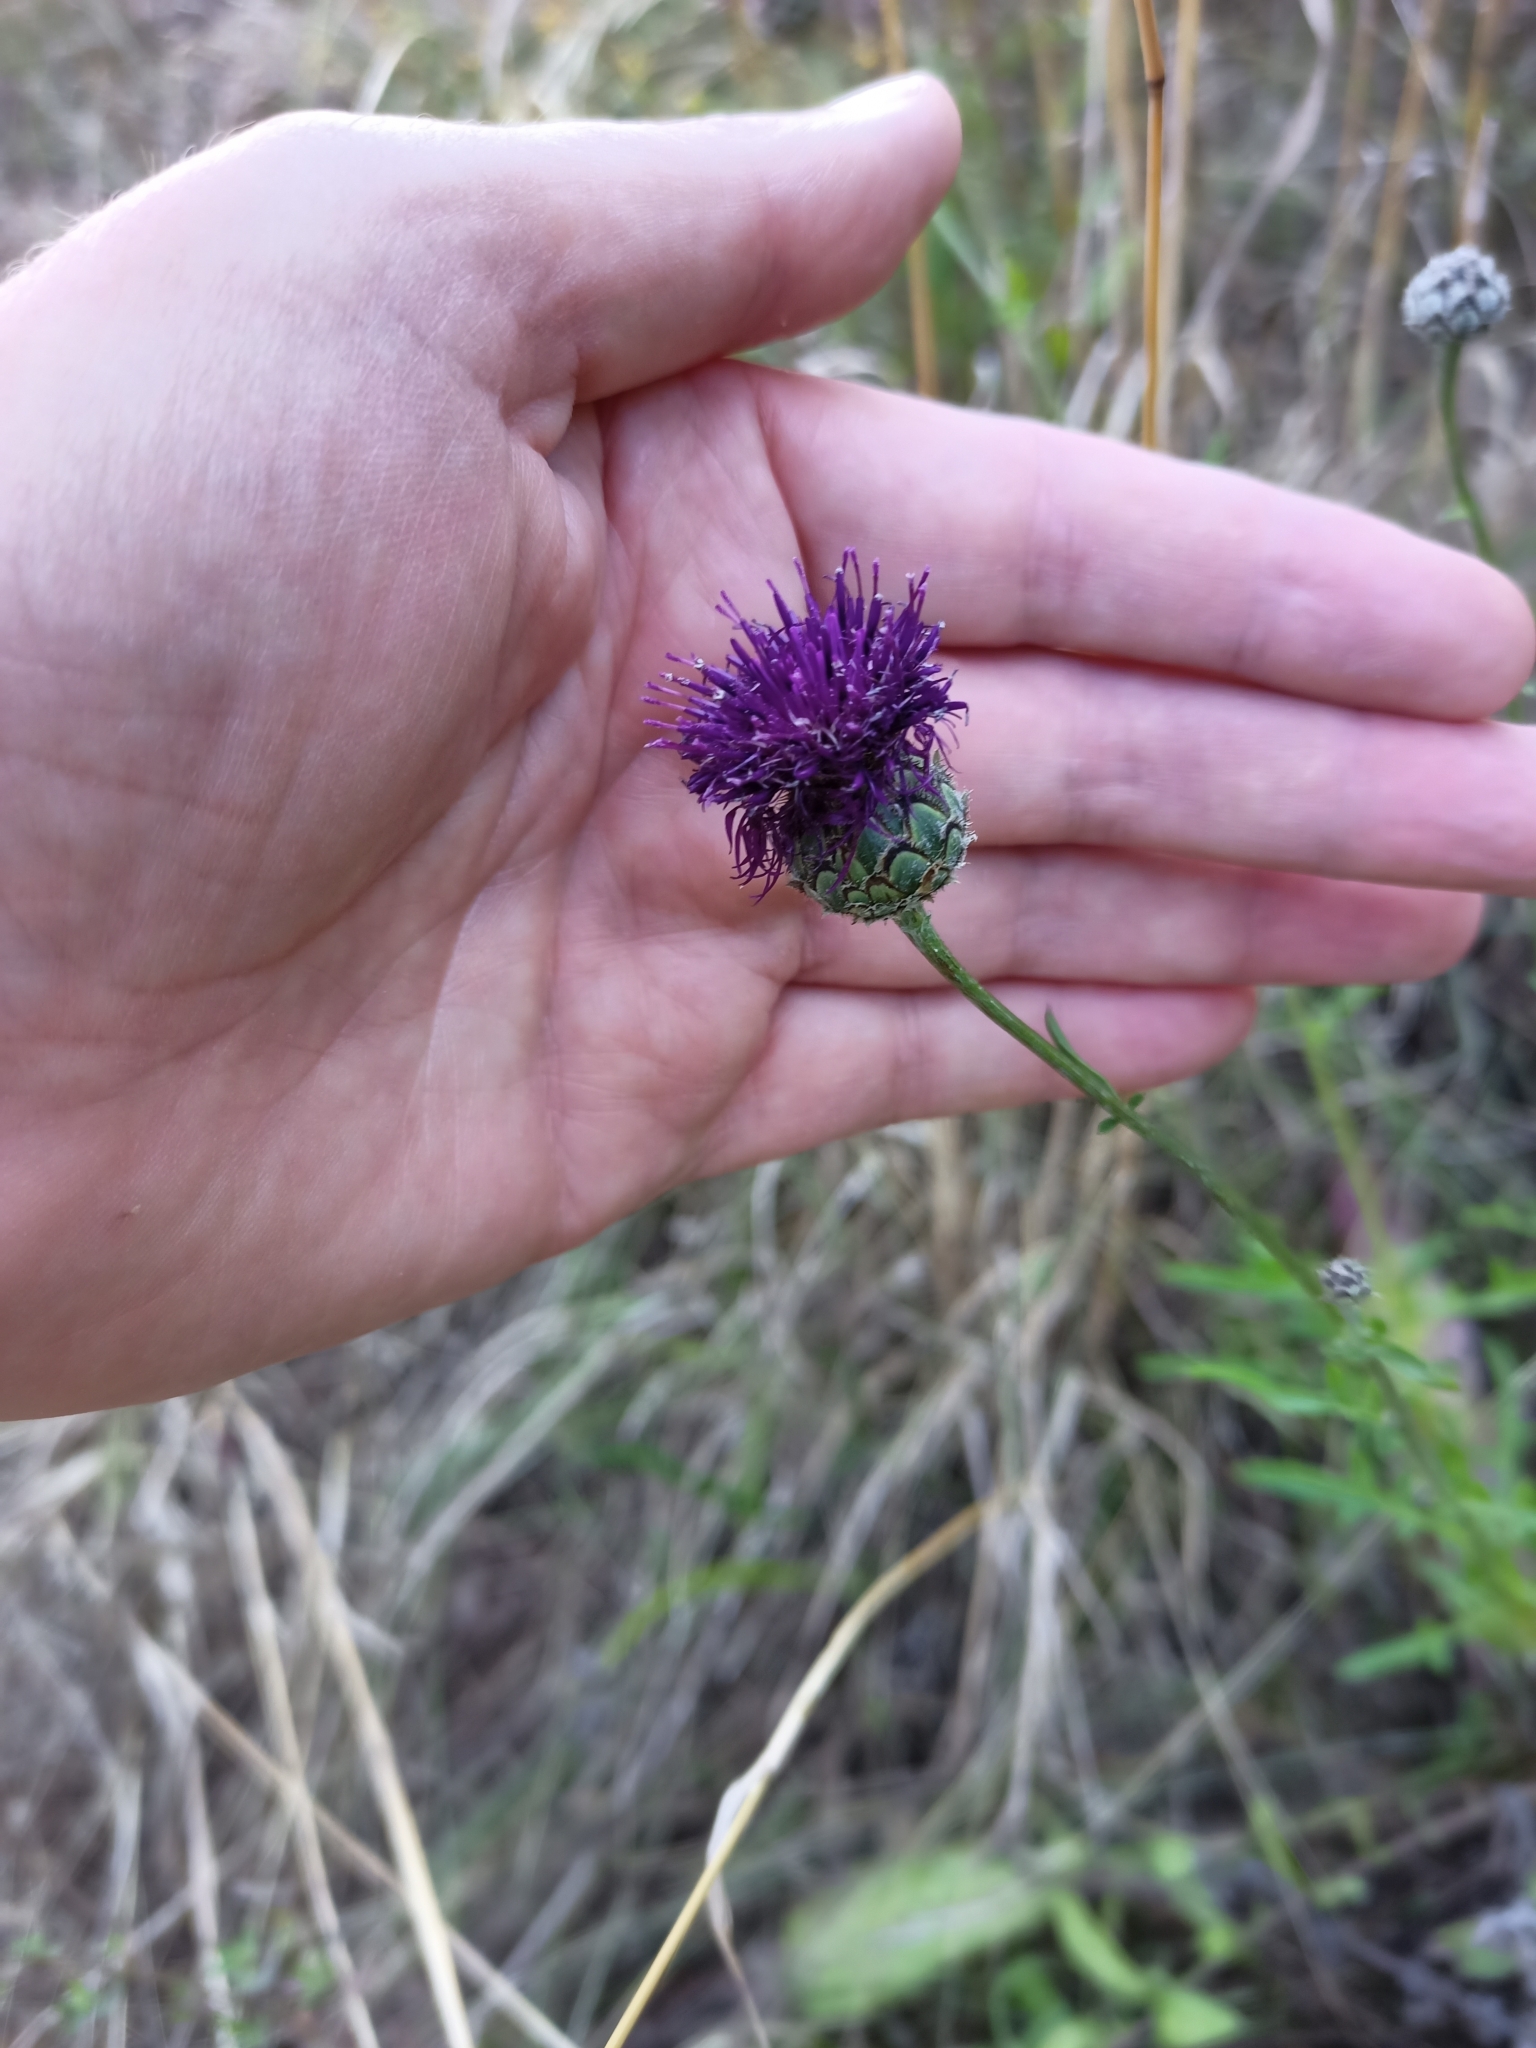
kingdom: Plantae
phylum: Tracheophyta
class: Magnoliopsida
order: Asterales
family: Asteraceae
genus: Centaurea
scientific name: Centaurea scabiosa
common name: Greater knapweed
